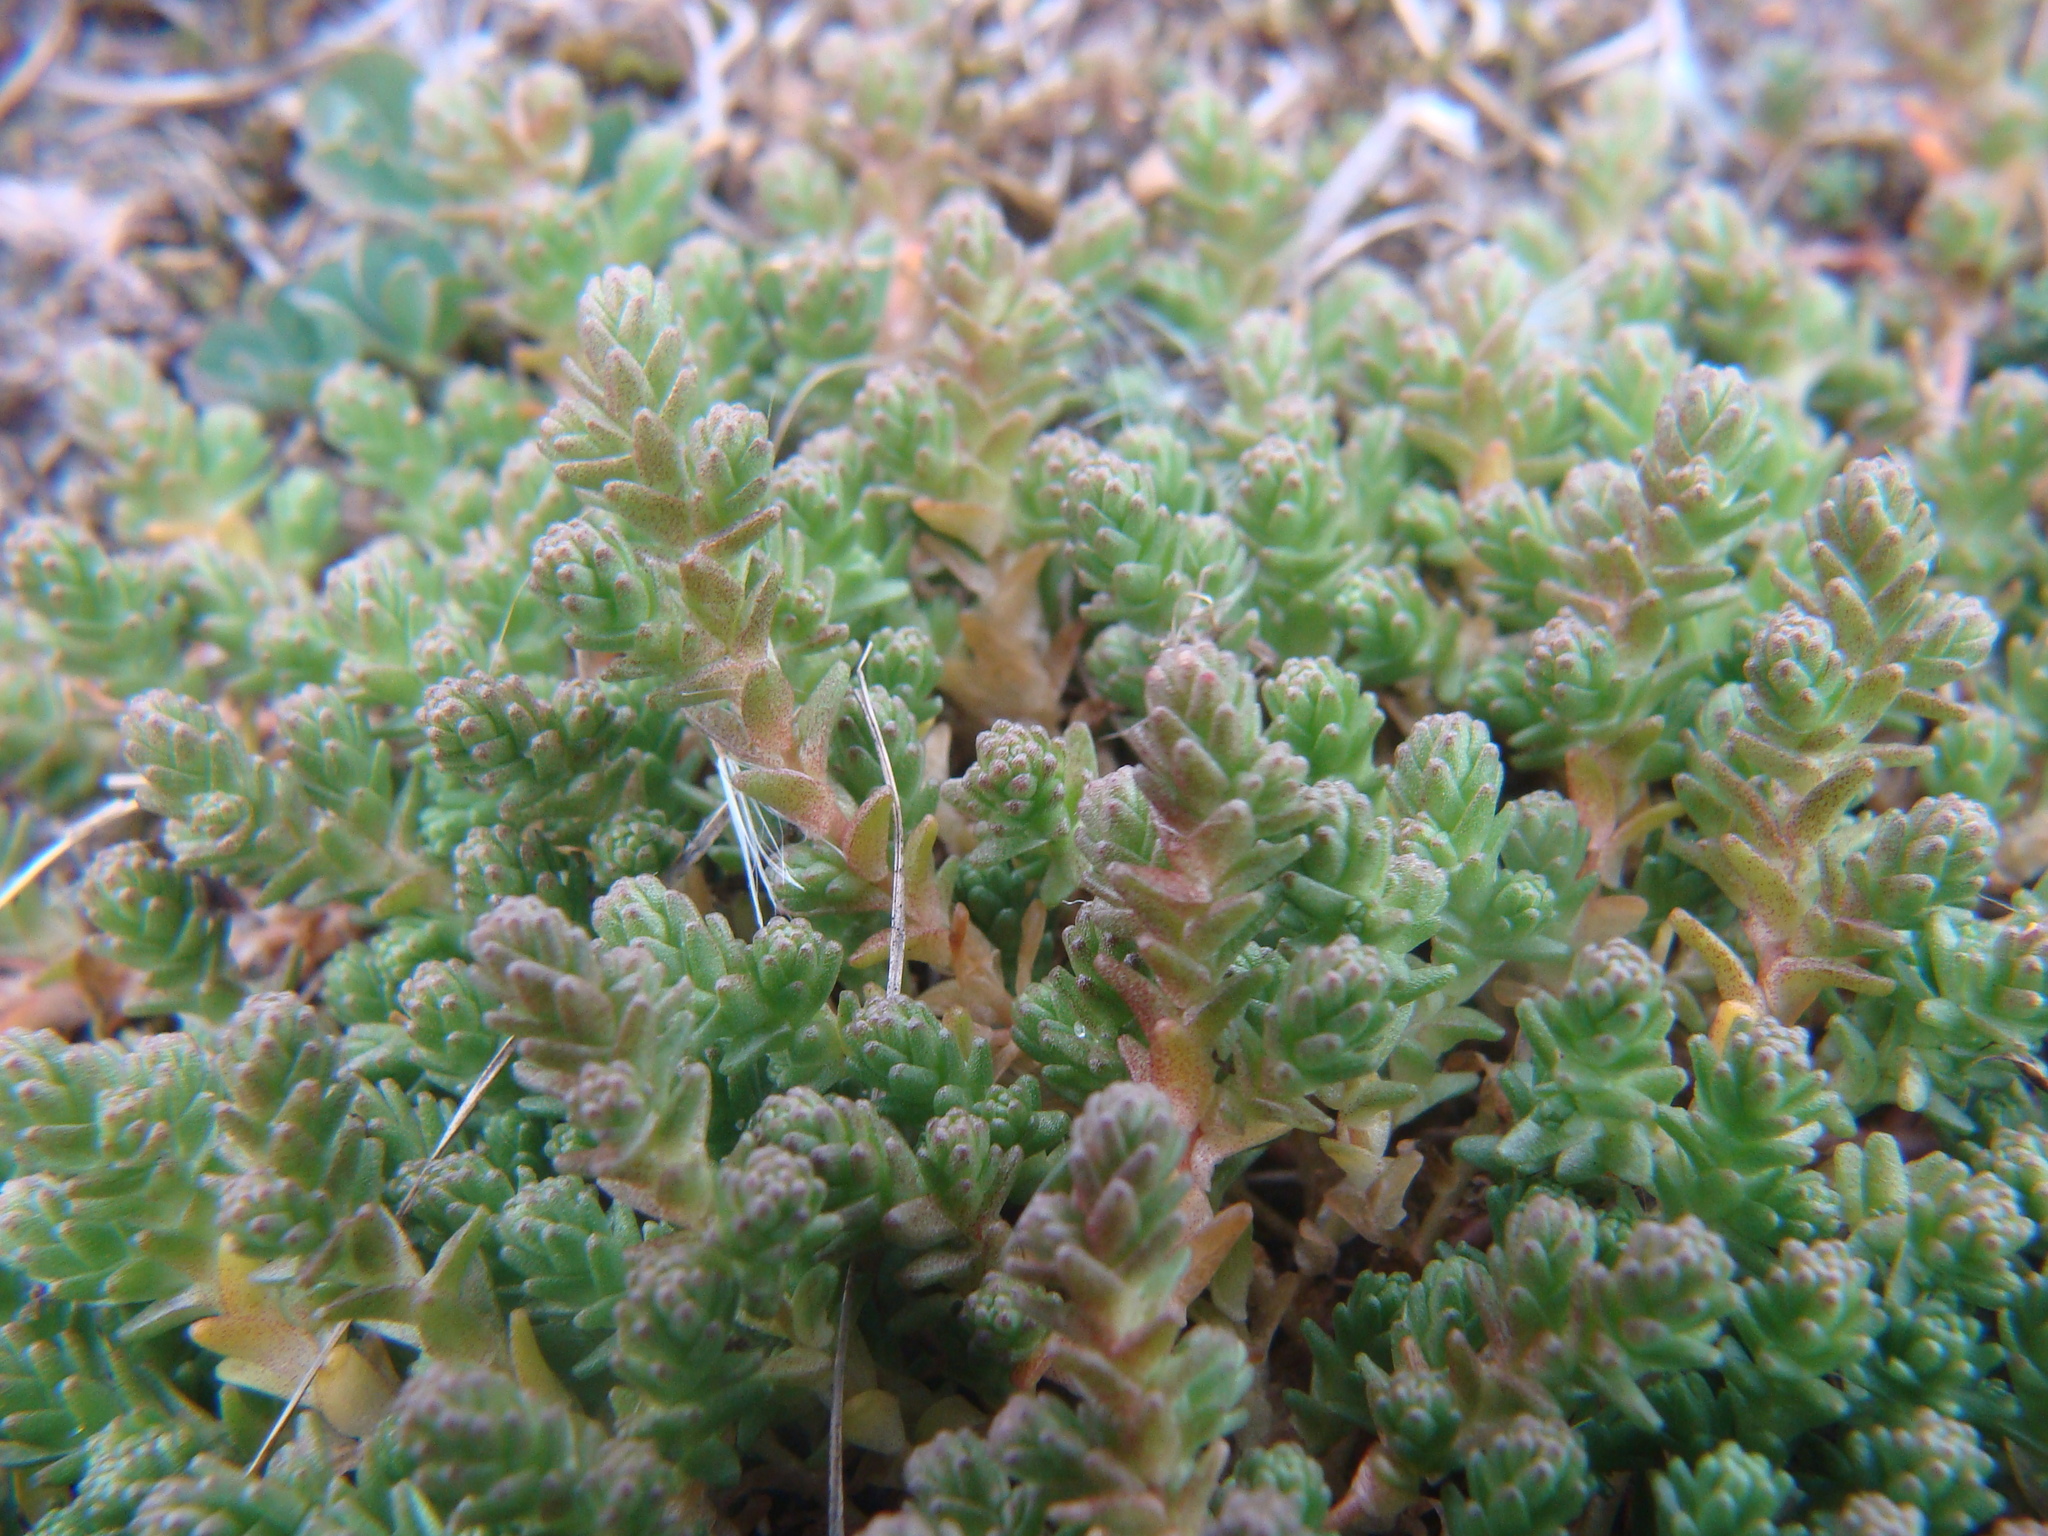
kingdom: Plantae
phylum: Tracheophyta
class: Magnoliopsida
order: Saxifragales
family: Crassulaceae
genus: Sedum
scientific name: Sedum acre
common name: Biting stonecrop
